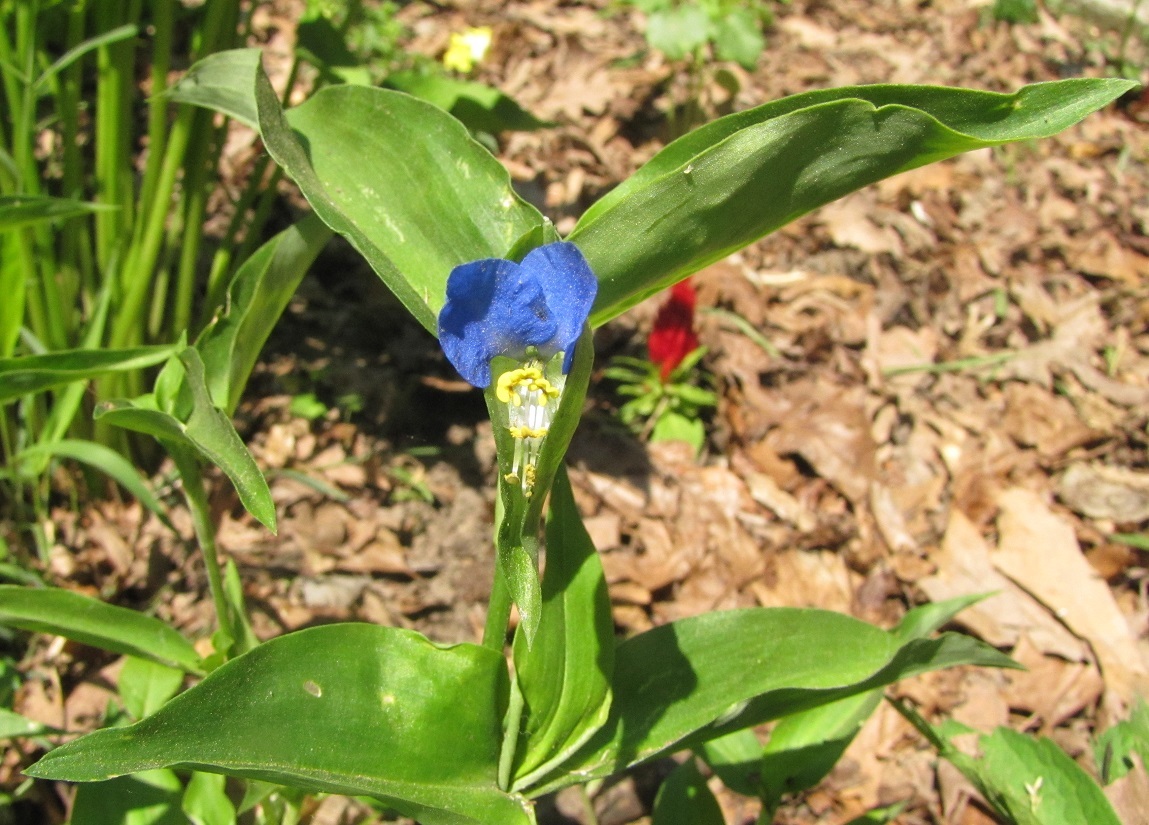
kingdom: Plantae
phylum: Tracheophyta
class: Liliopsida
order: Commelinales
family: Commelinaceae
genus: Commelina
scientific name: Commelina communis
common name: Asiatic dayflower
